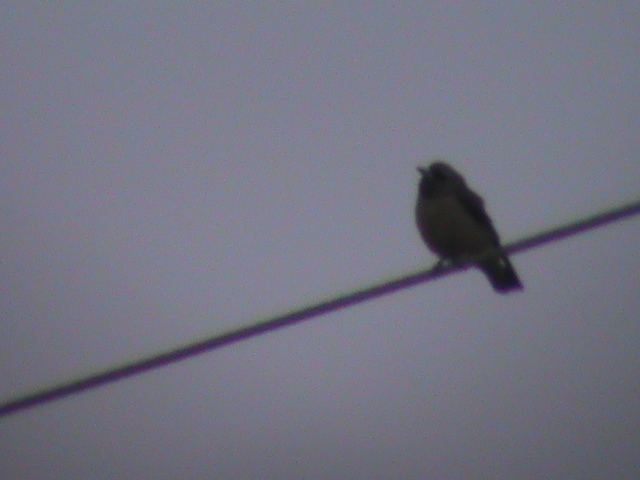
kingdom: Animalia
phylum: Chordata
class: Aves
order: Passeriformes
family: Artamidae
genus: Artamus
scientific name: Artamus fuscus
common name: Ashy woodswallow
